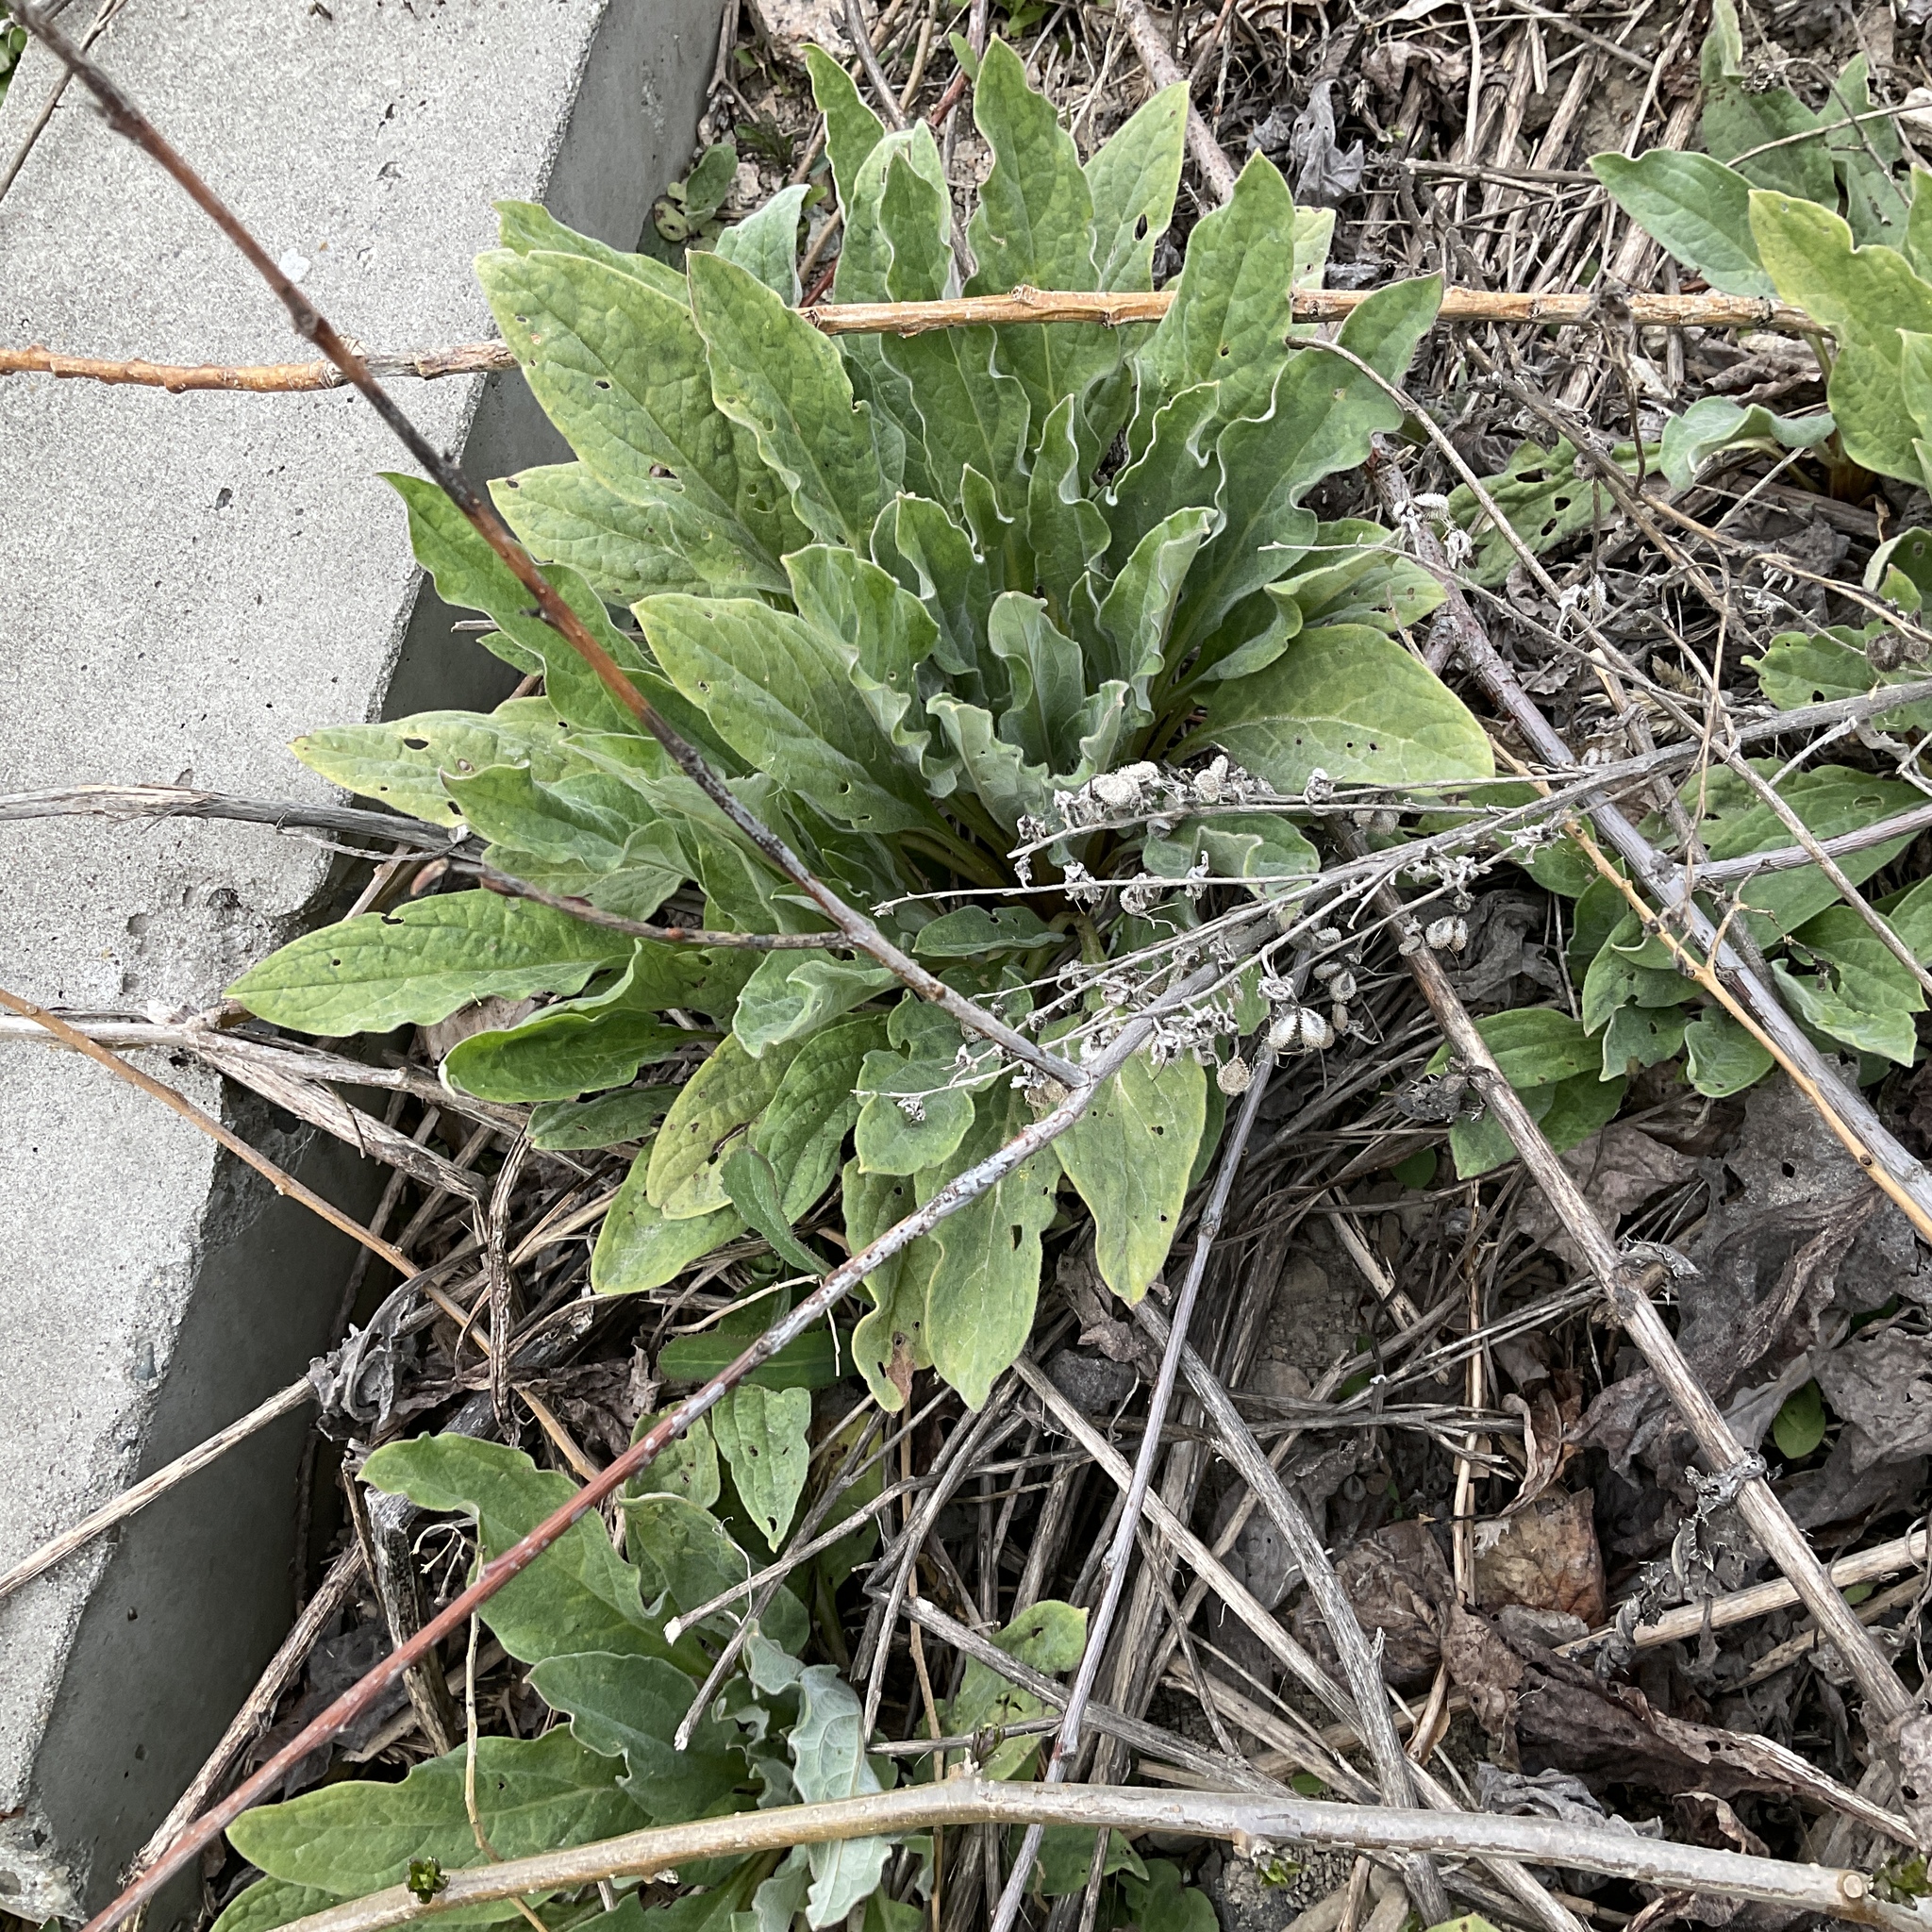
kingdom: Plantae
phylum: Tracheophyta
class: Magnoliopsida
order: Boraginales
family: Boraginaceae
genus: Cynoglossum
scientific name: Cynoglossum officinale
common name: Hound's-tongue
